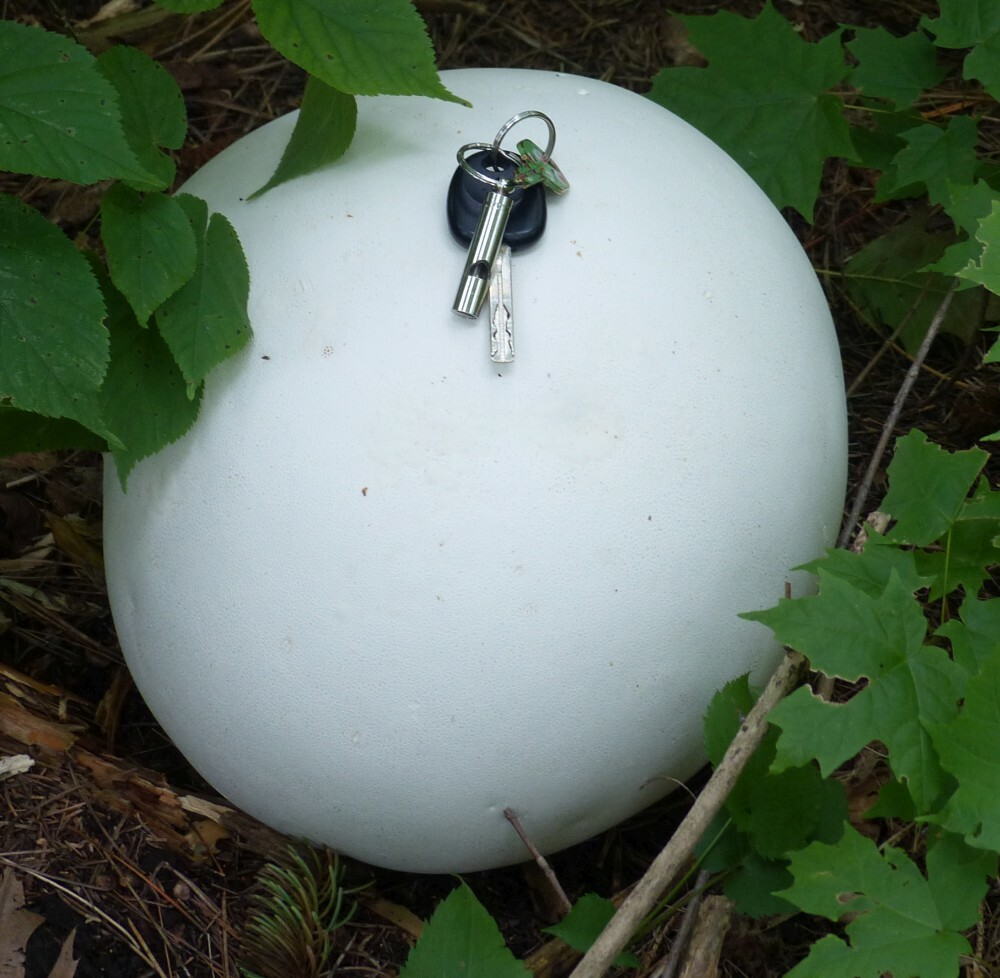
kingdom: Fungi
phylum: Basidiomycota
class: Agaricomycetes
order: Agaricales
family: Lycoperdaceae
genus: Calvatia
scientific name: Calvatia gigantea
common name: Giant puffball
